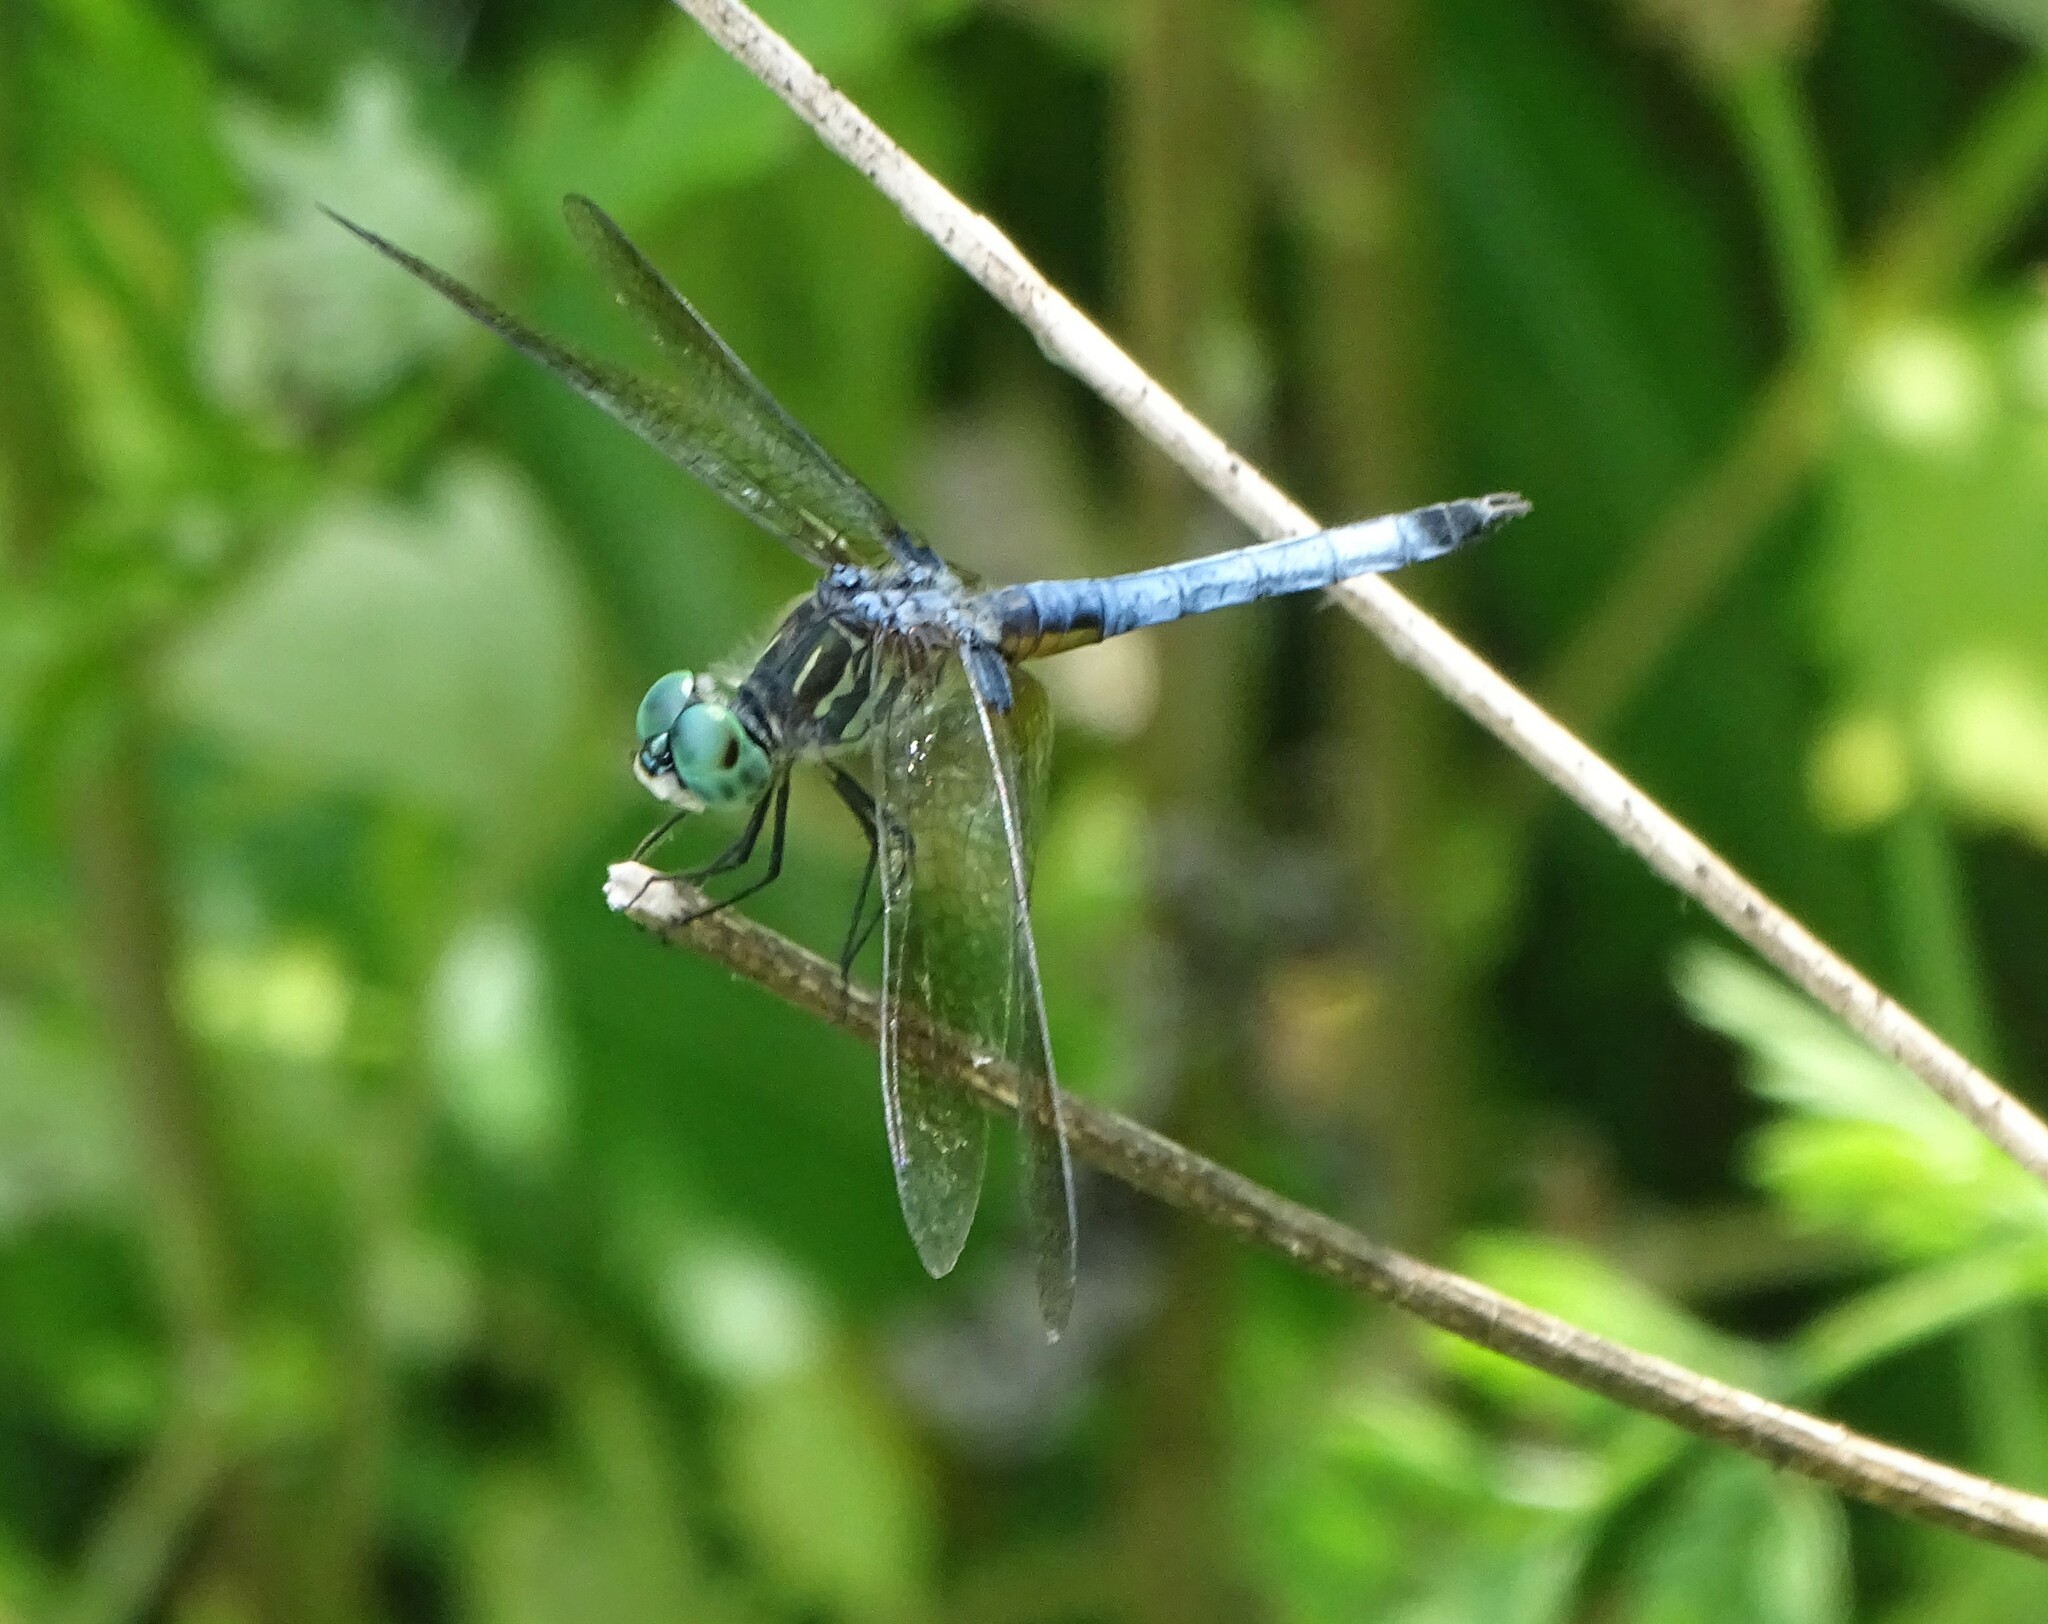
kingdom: Animalia
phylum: Arthropoda
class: Insecta
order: Odonata
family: Libellulidae
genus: Pachydiplax
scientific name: Pachydiplax longipennis
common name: Blue dasher
